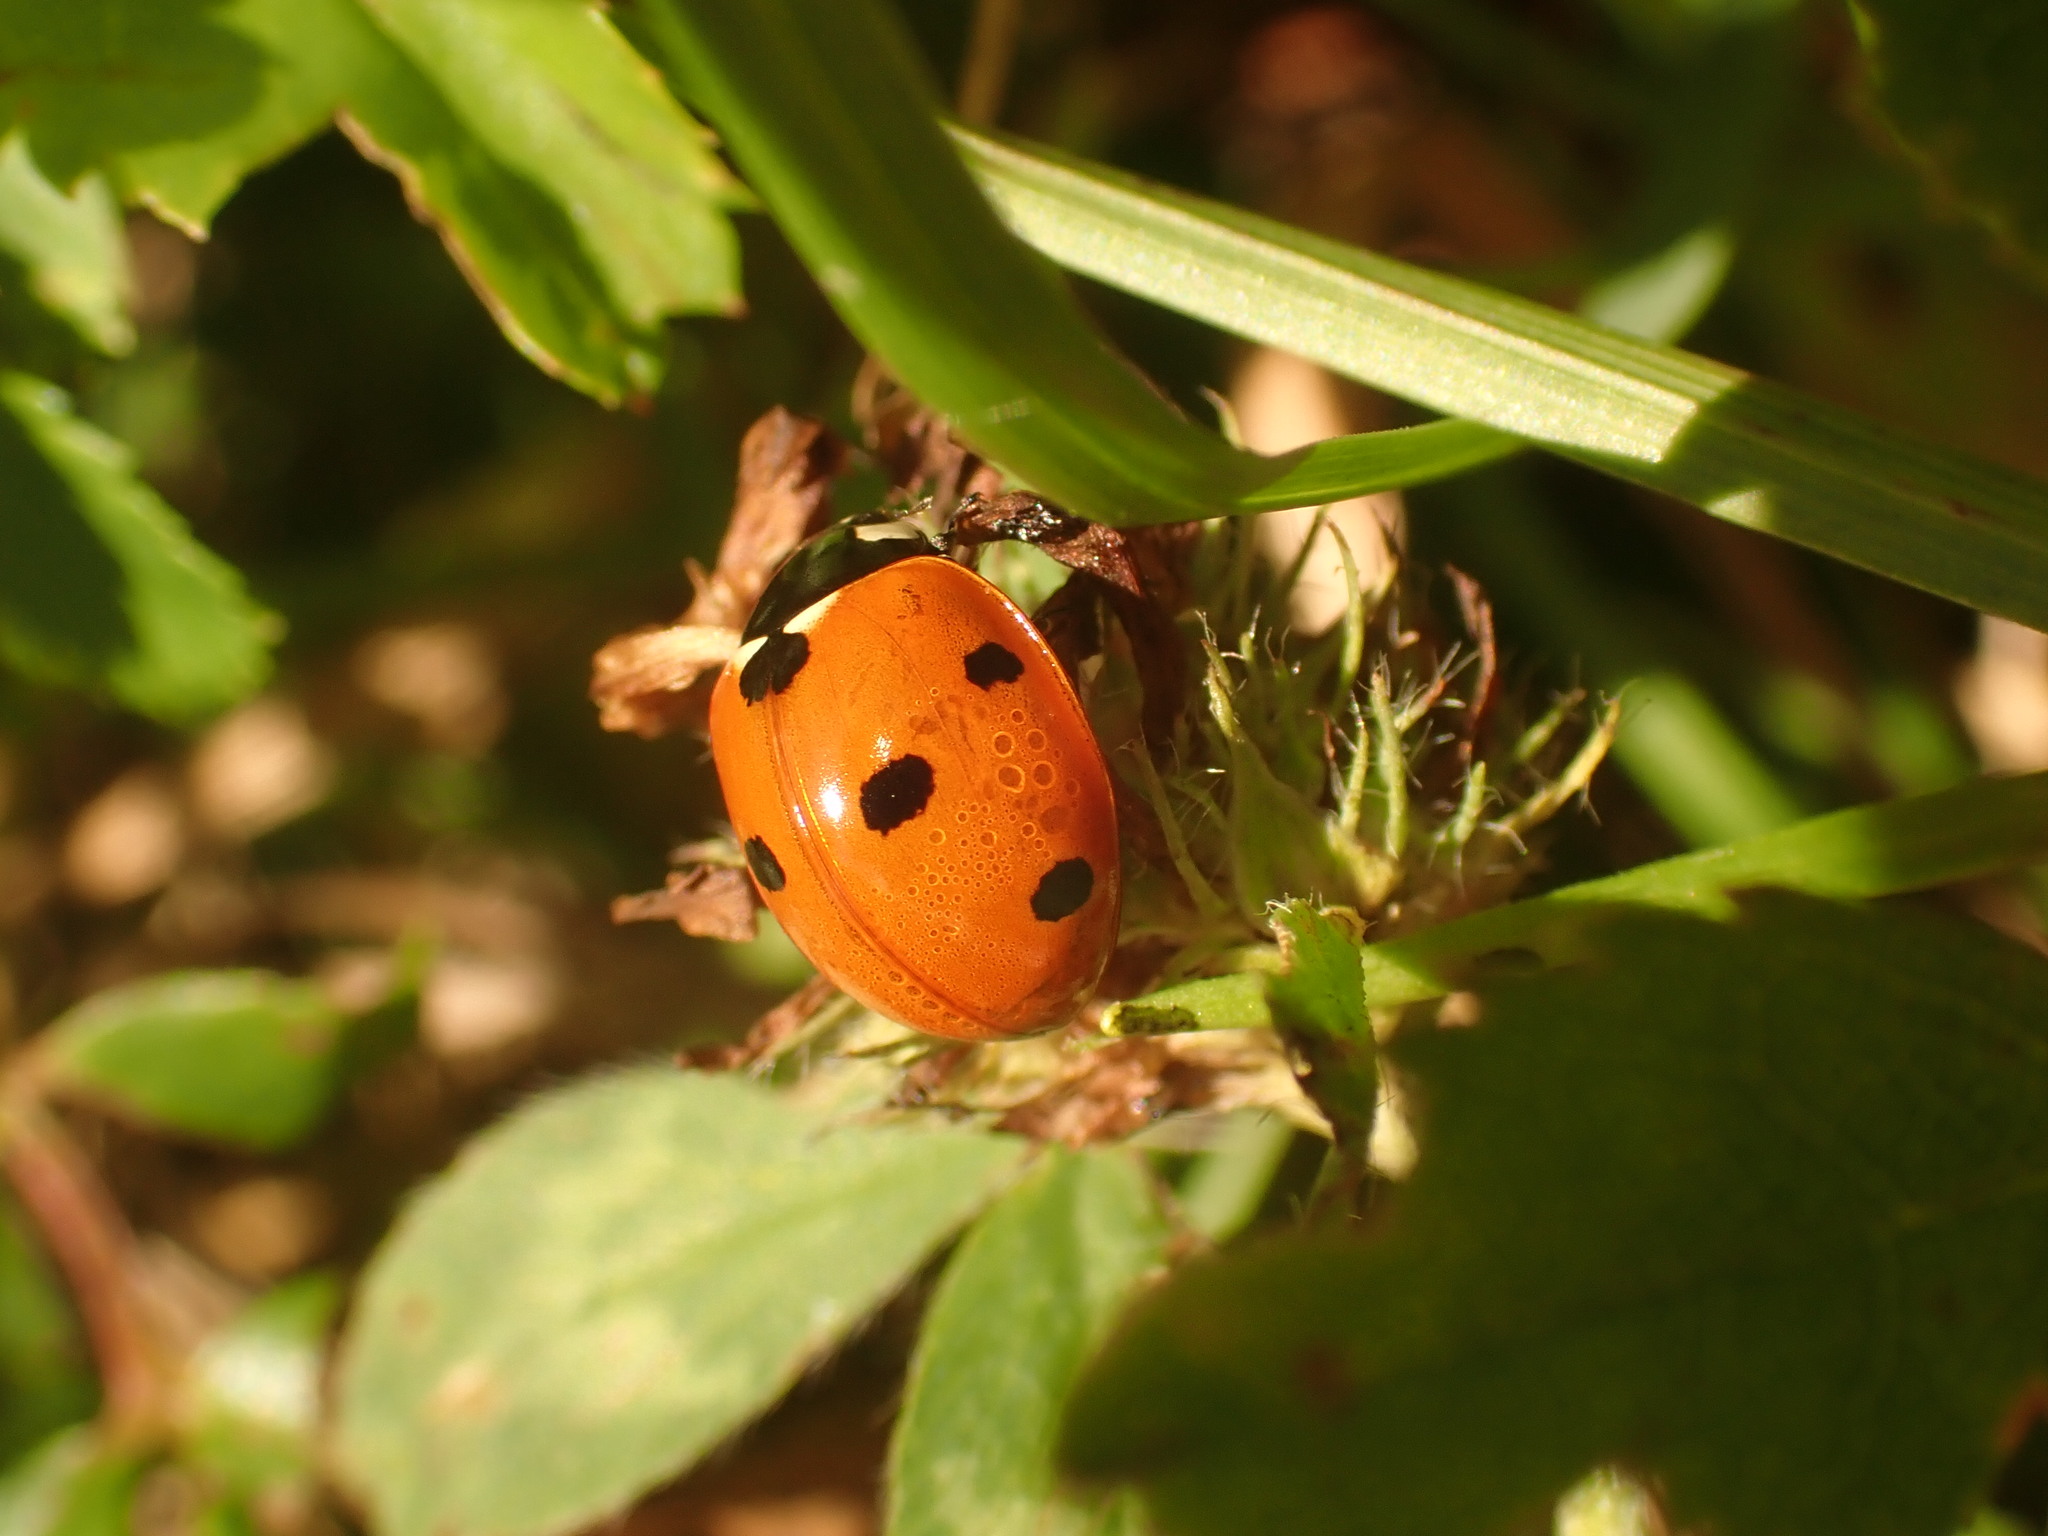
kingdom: Animalia
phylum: Arthropoda
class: Insecta
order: Coleoptera
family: Coccinellidae
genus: Coccinella
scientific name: Coccinella septempunctata
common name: Sevenspotted lady beetle
